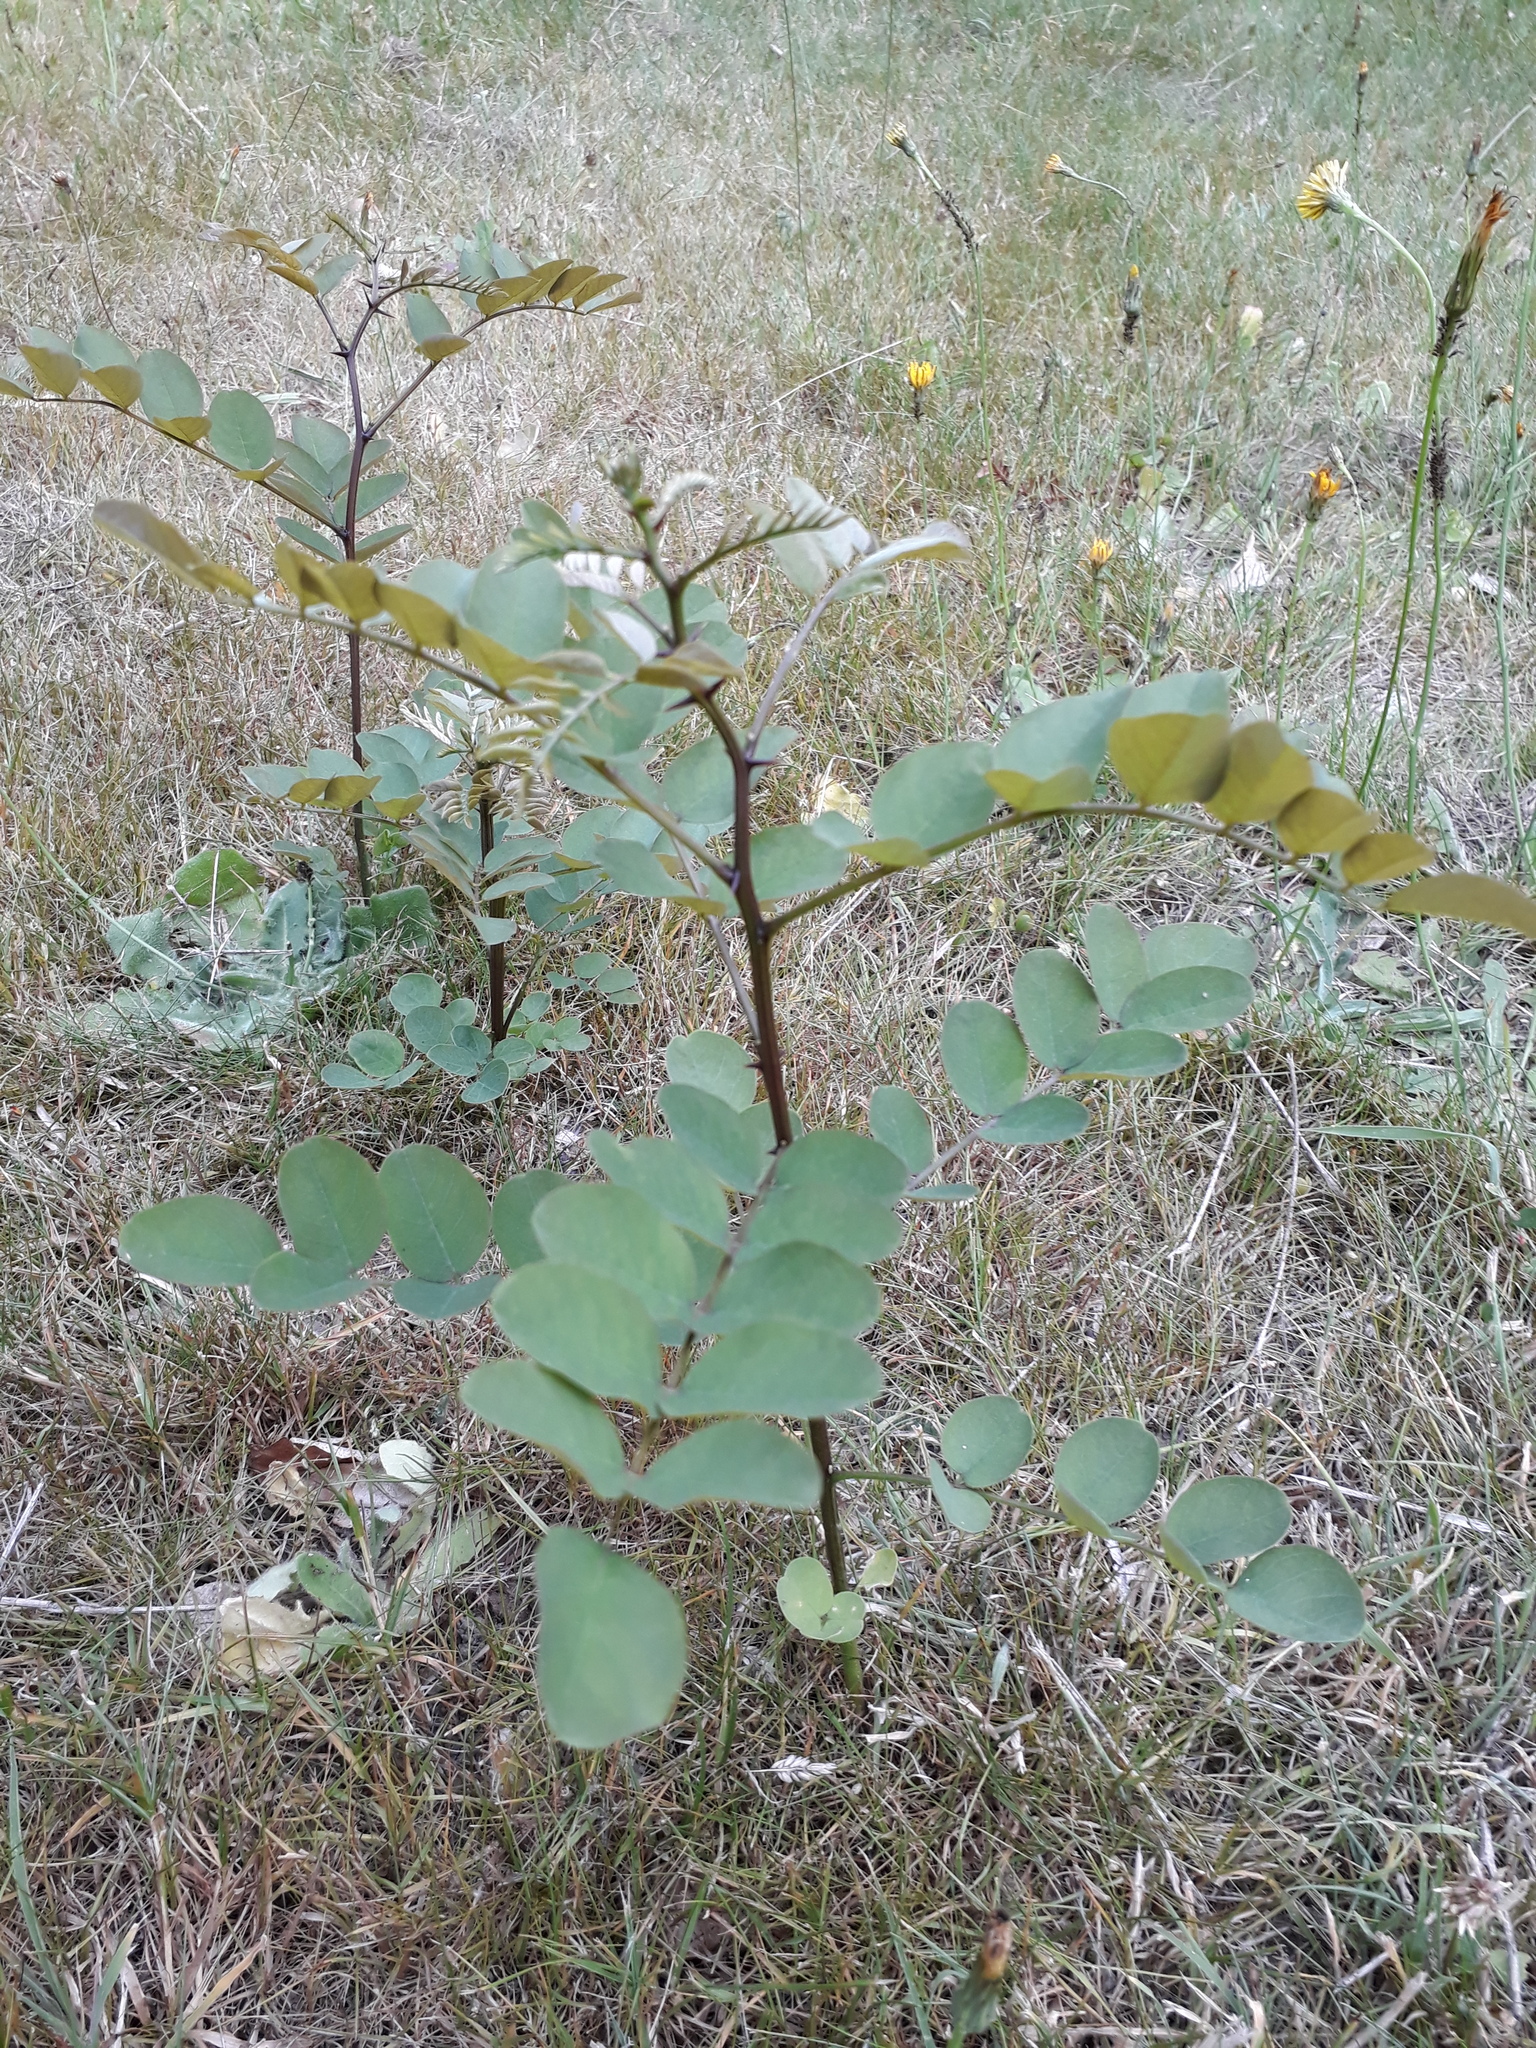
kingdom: Plantae
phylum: Tracheophyta
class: Magnoliopsida
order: Fabales
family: Fabaceae
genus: Robinia
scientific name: Robinia pseudoacacia
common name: Black locust
